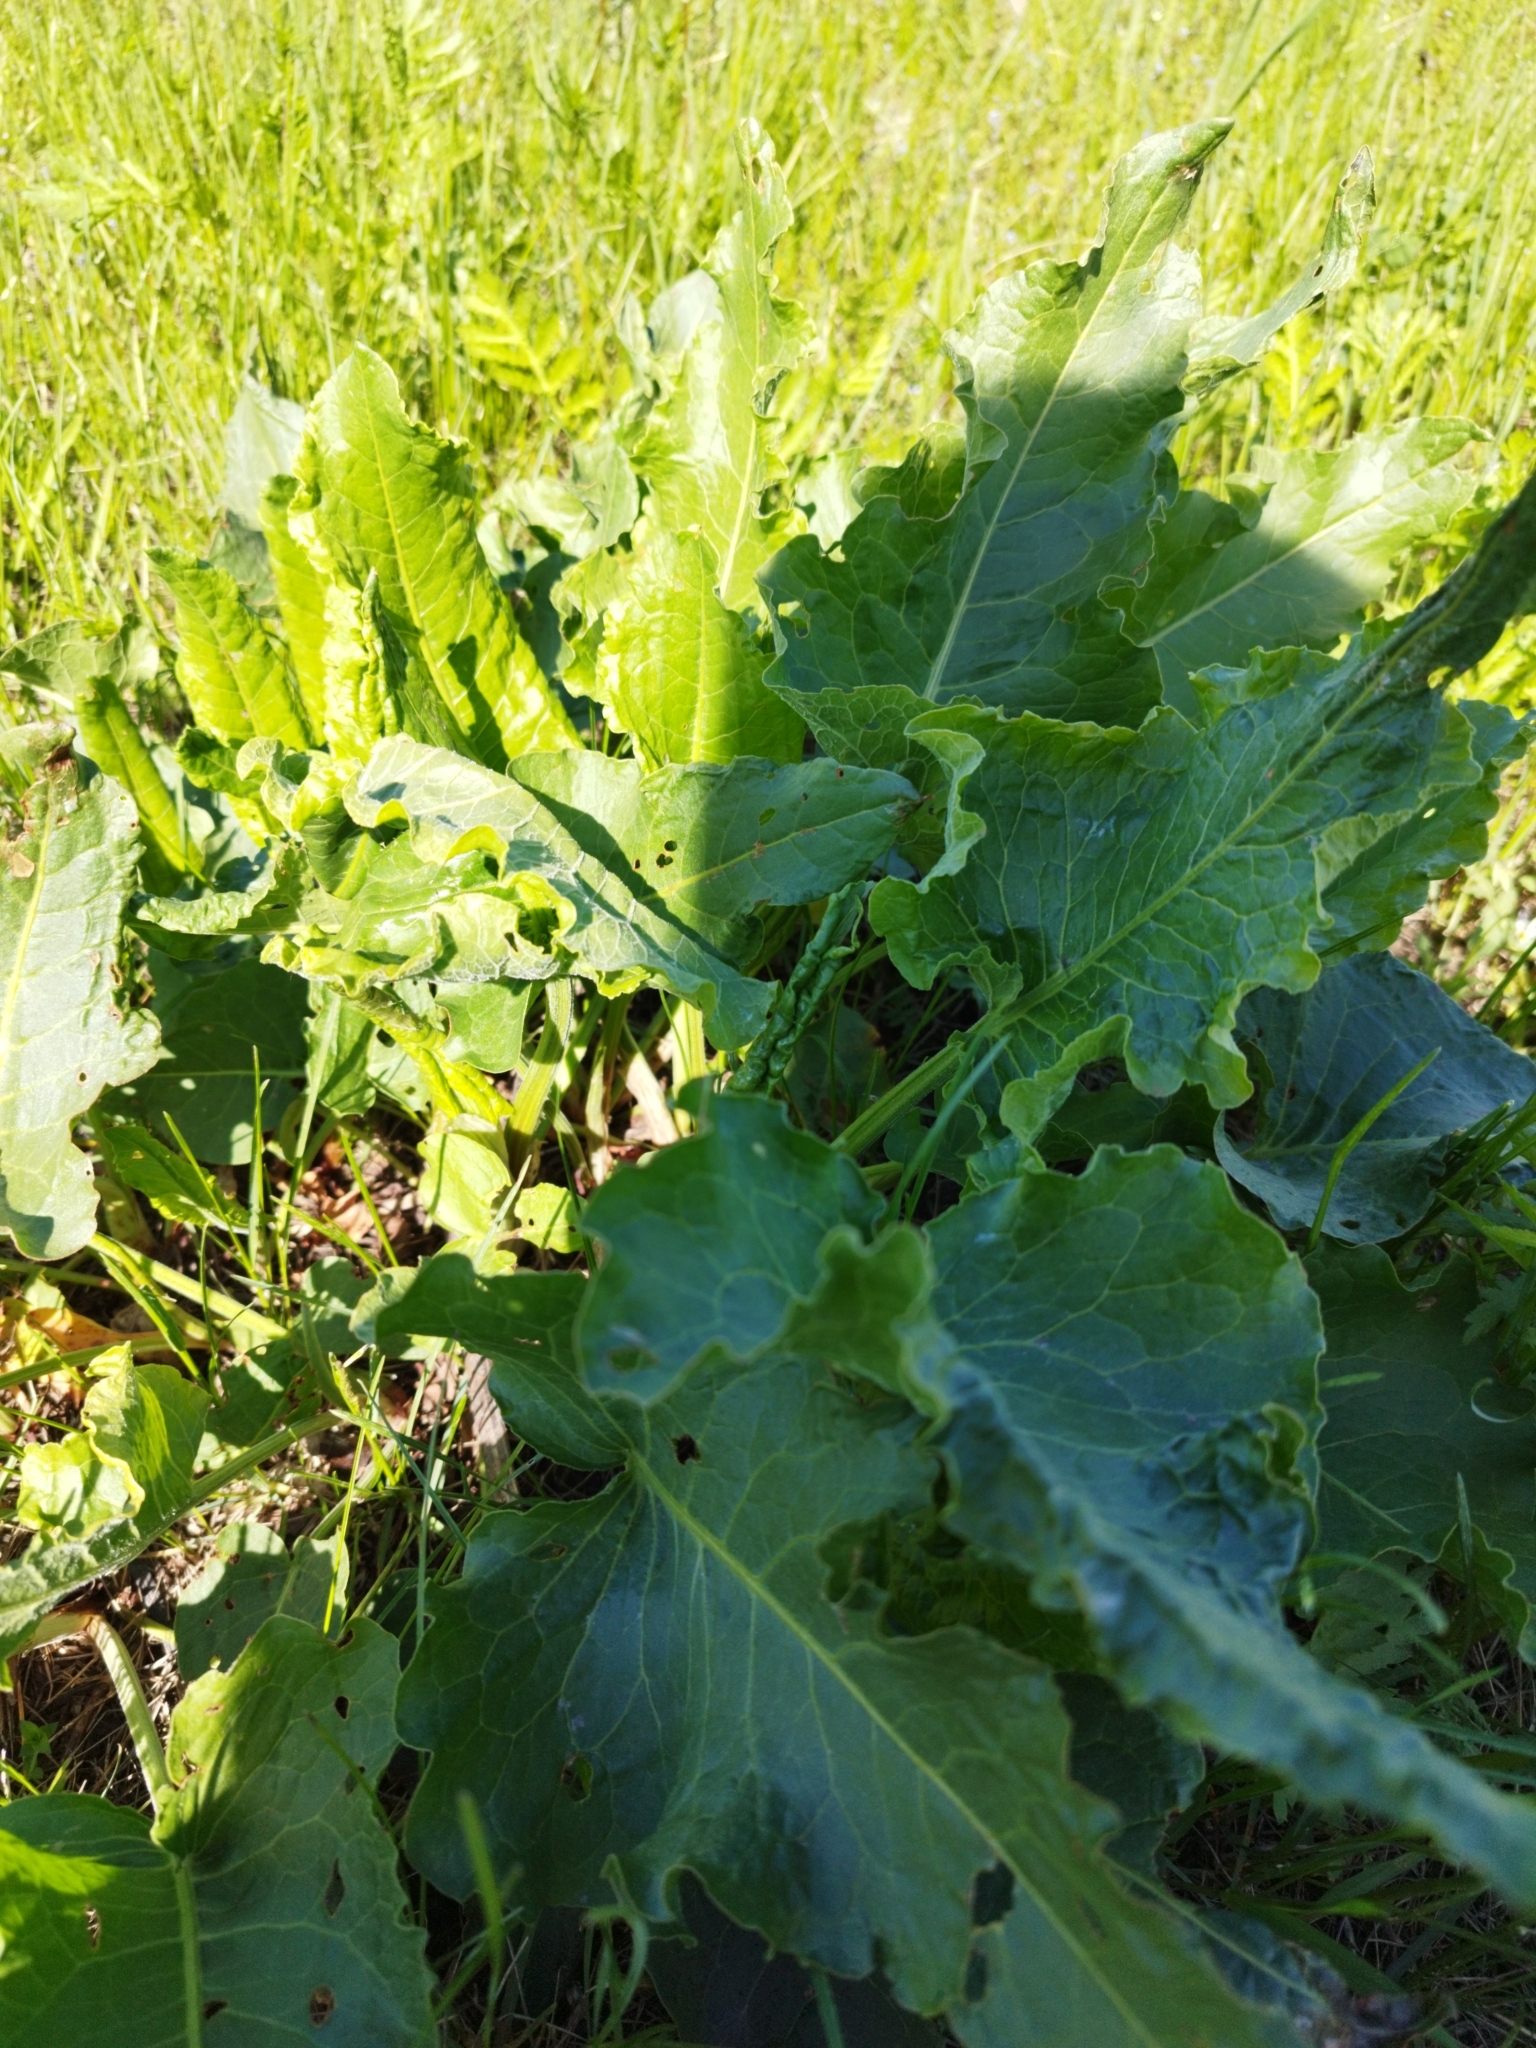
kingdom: Plantae
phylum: Tracheophyta
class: Magnoliopsida
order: Caryophyllales
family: Polygonaceae
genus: Rumex
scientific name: Rumex confertus
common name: Russian dock
